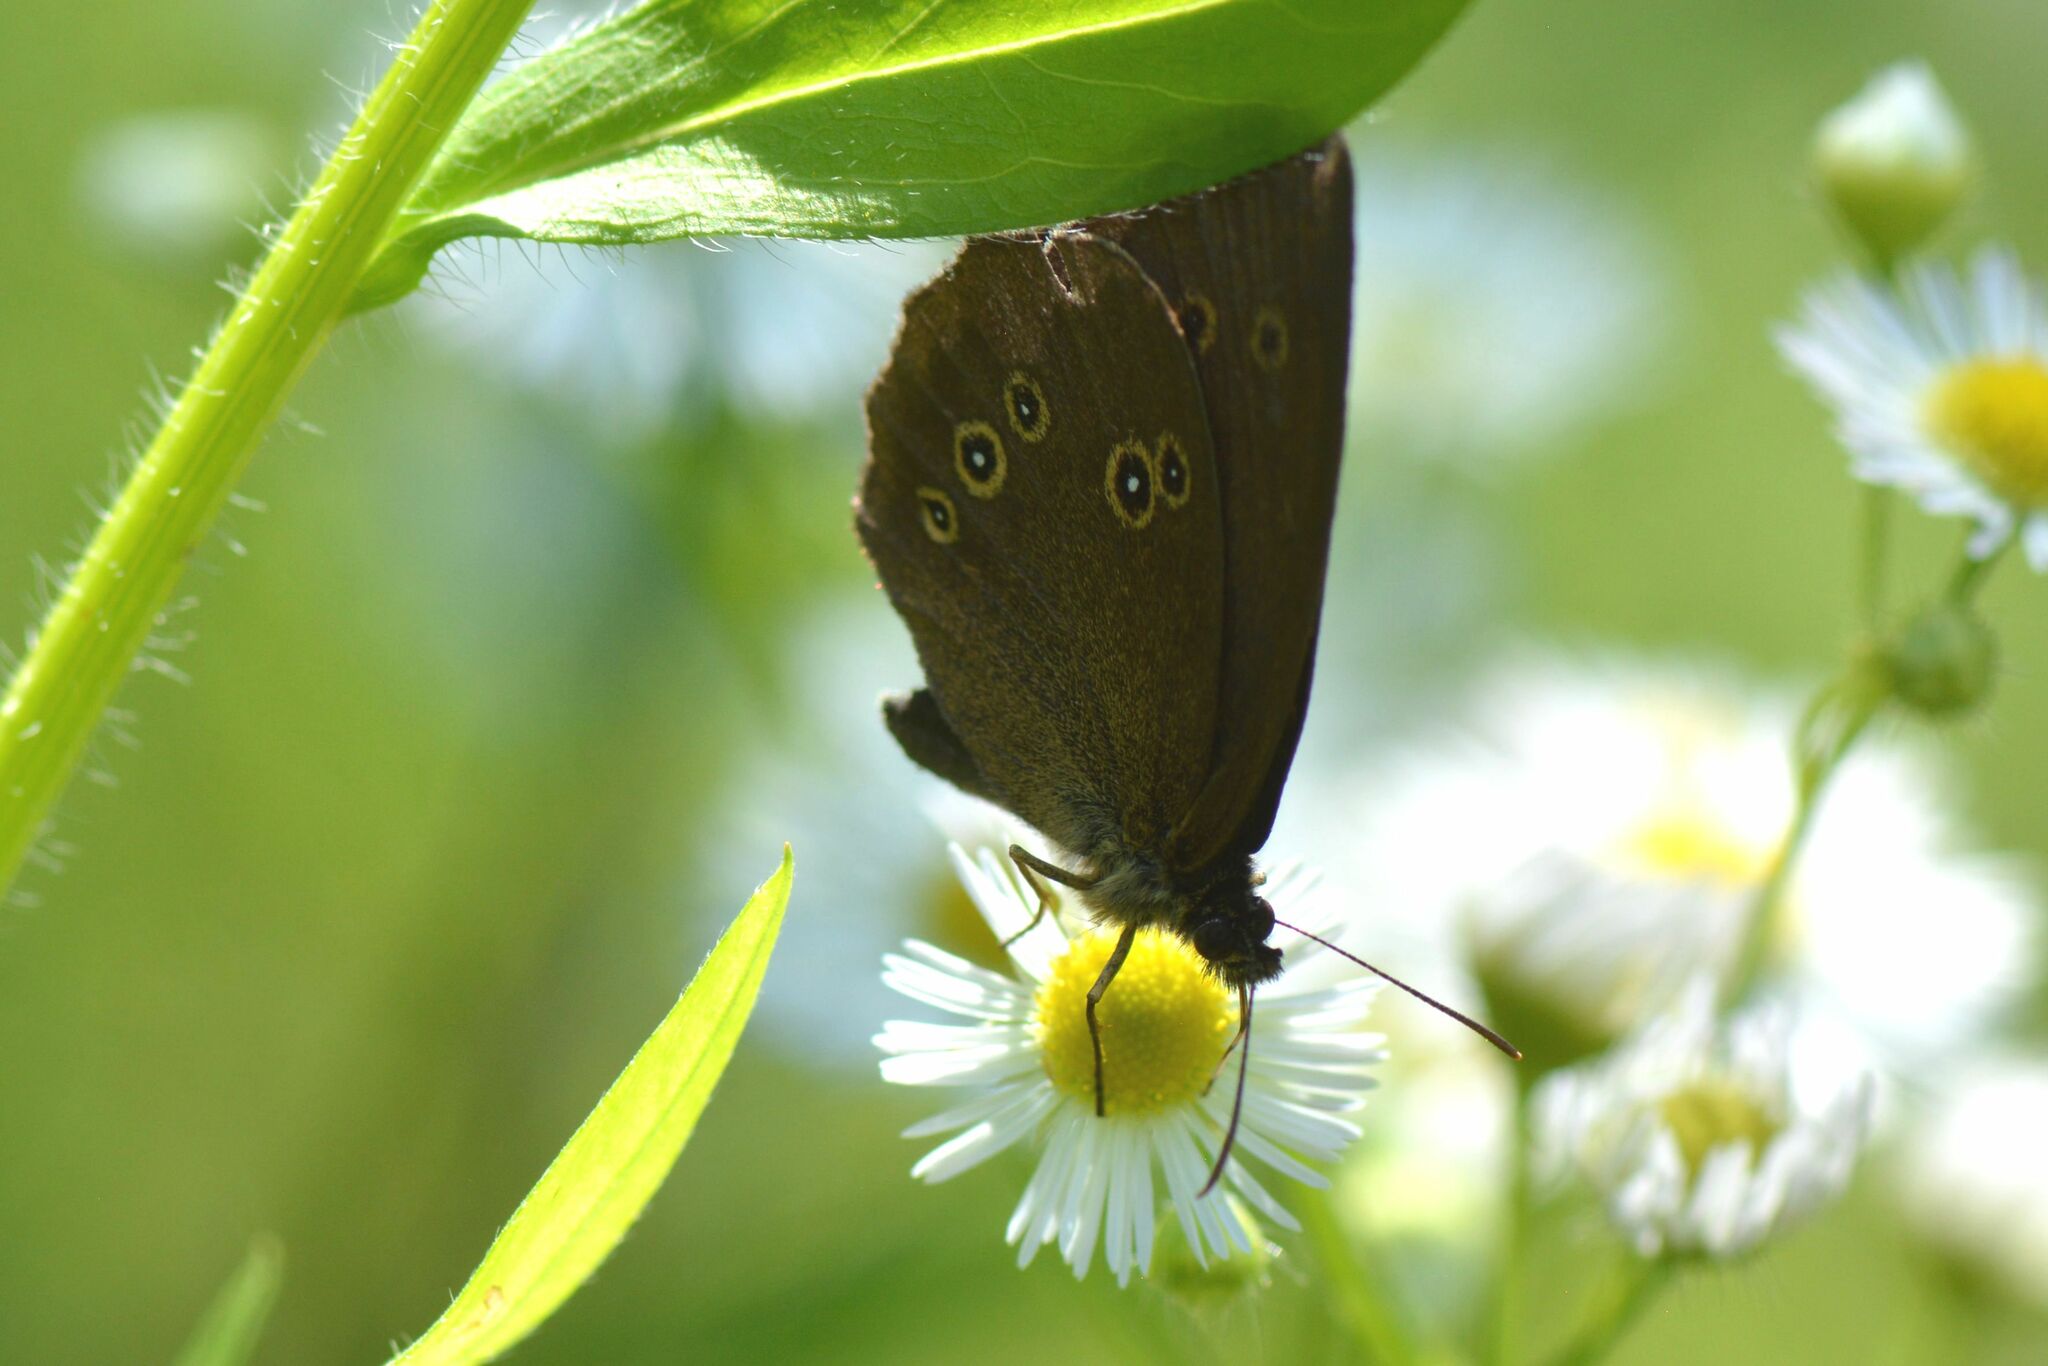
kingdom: Animalia
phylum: Arthropoda
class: Insecta
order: Lepidoptera
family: Nymphalidae
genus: Aphantopus
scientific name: Aphantopus hyperantus
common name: Ringlet
